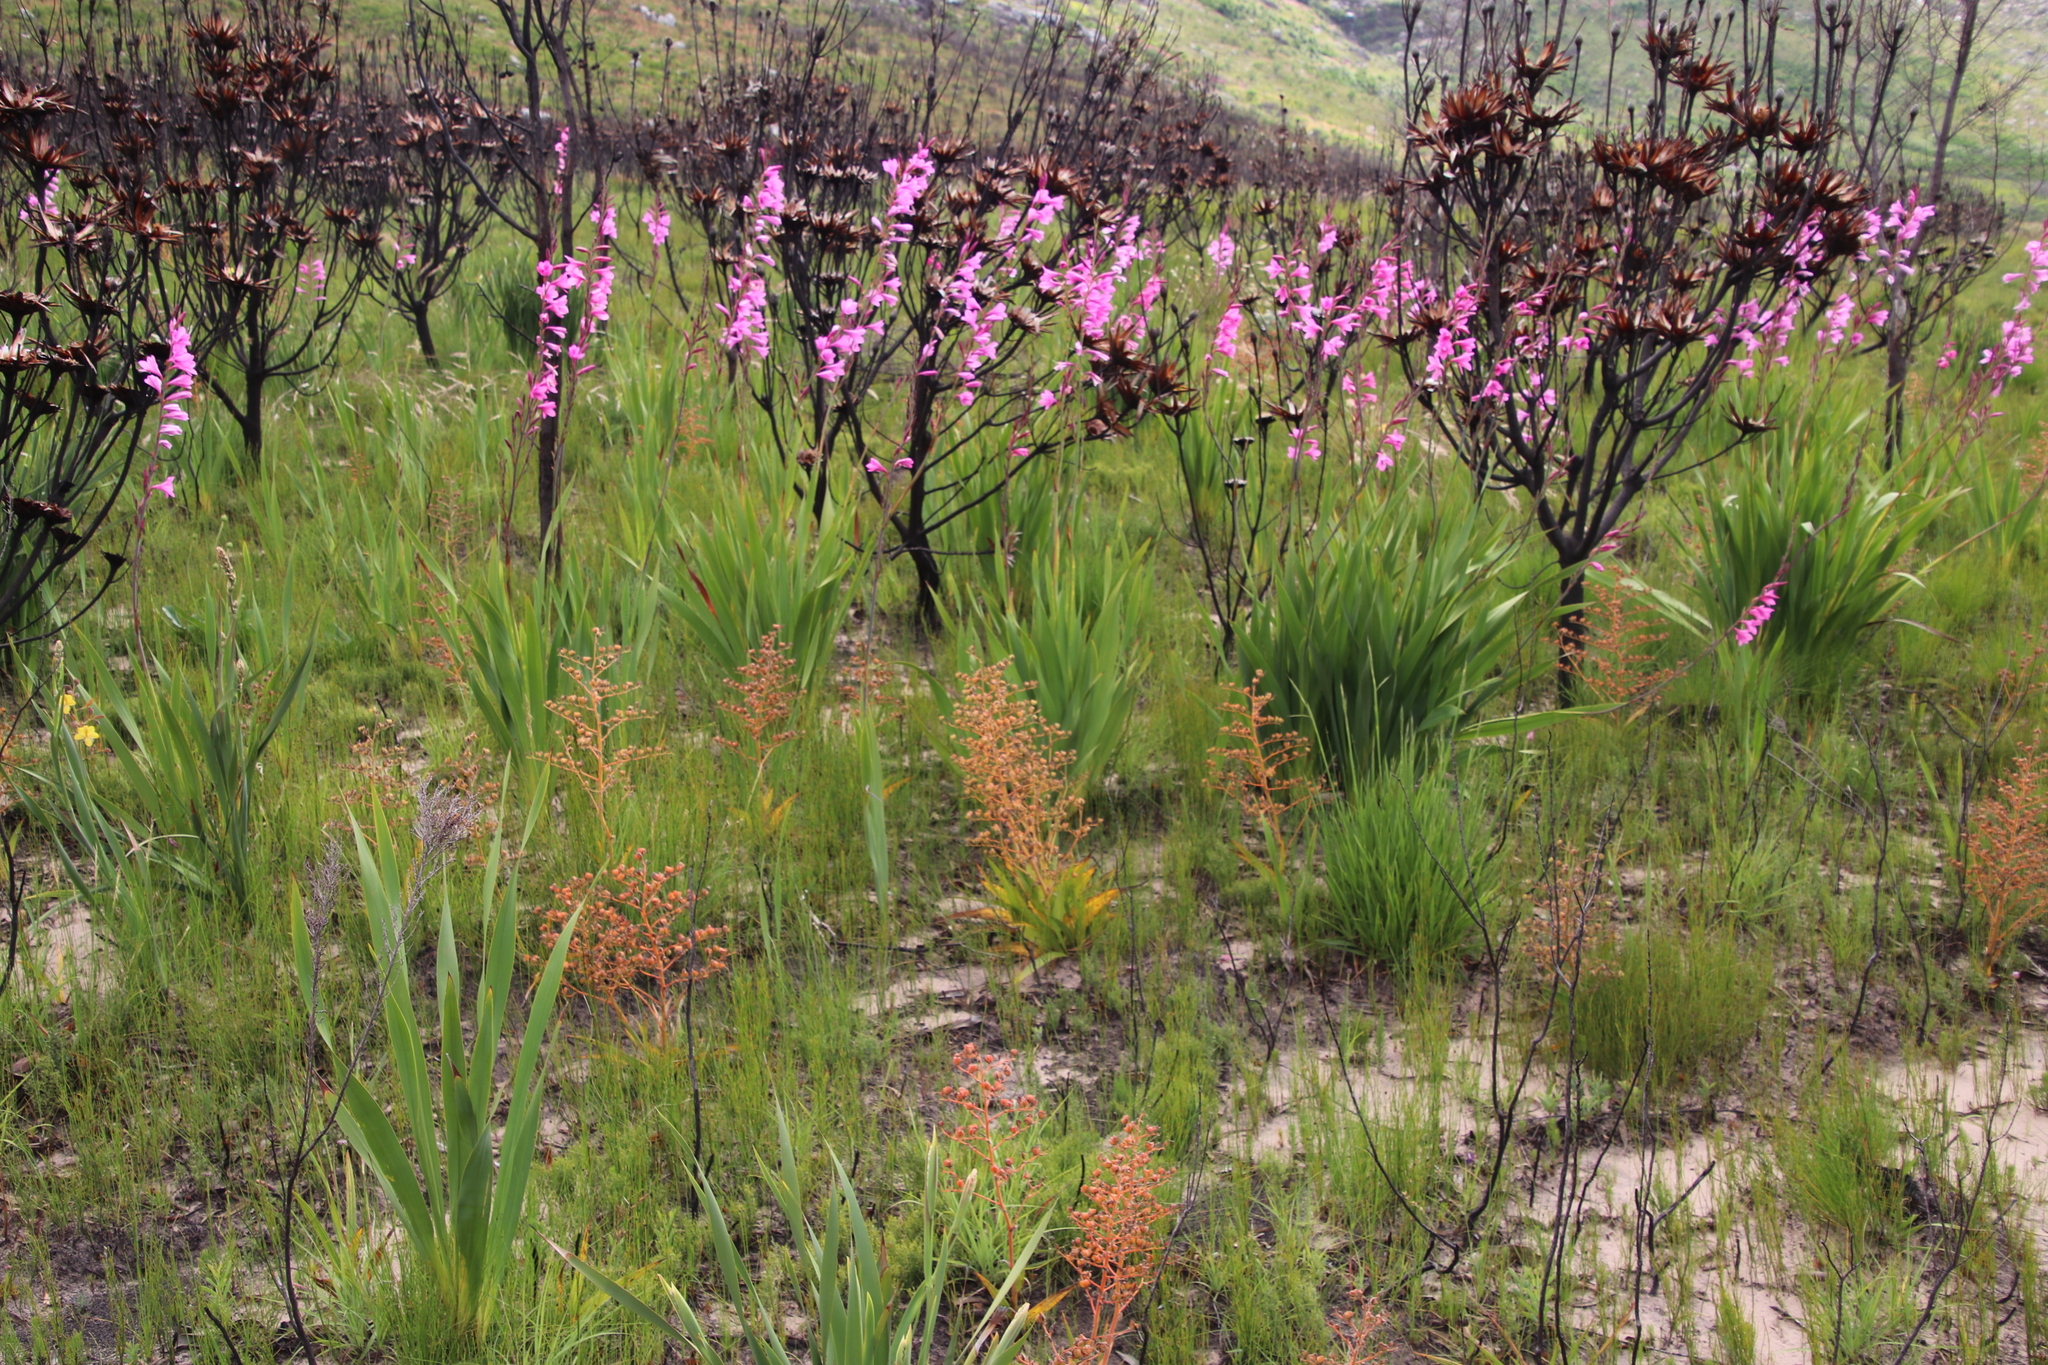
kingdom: Plantae
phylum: Tracheophyta
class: Liliopsida
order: Commelinales
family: Haemodoraceae
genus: Wachendorfia
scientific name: Wachendorfia paniculata
